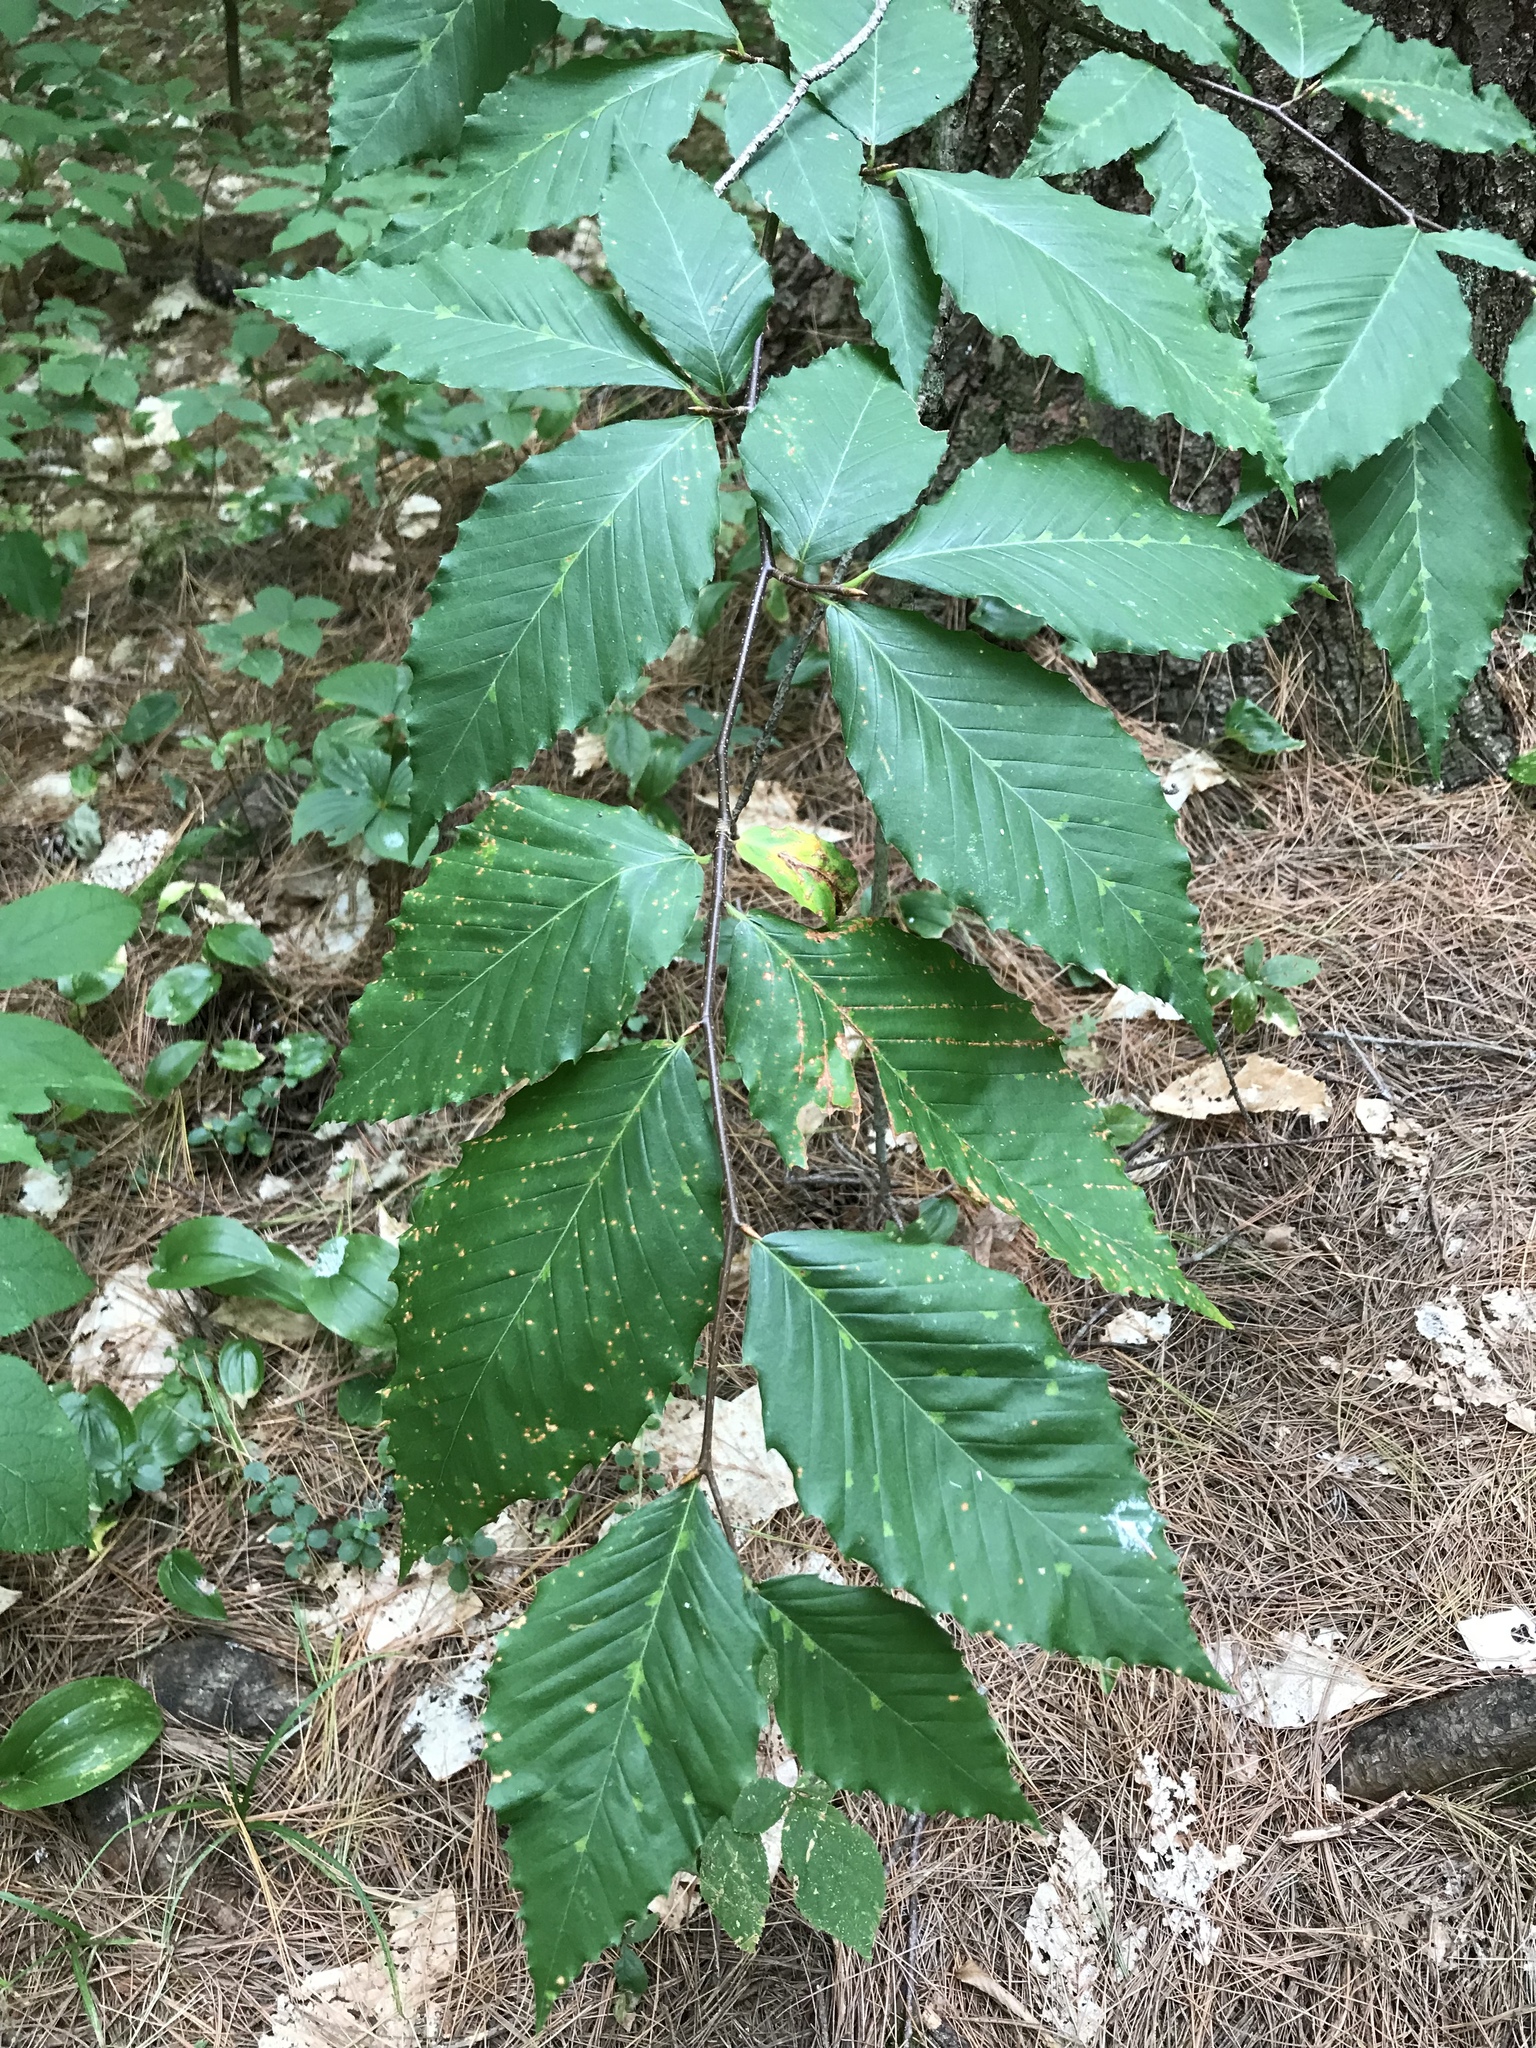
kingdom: Plantae
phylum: Tracheophyta
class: Magnoliopsida
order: Fagales
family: Fagaceae
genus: Fagus
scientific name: Fagus grandifolia
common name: American beech
